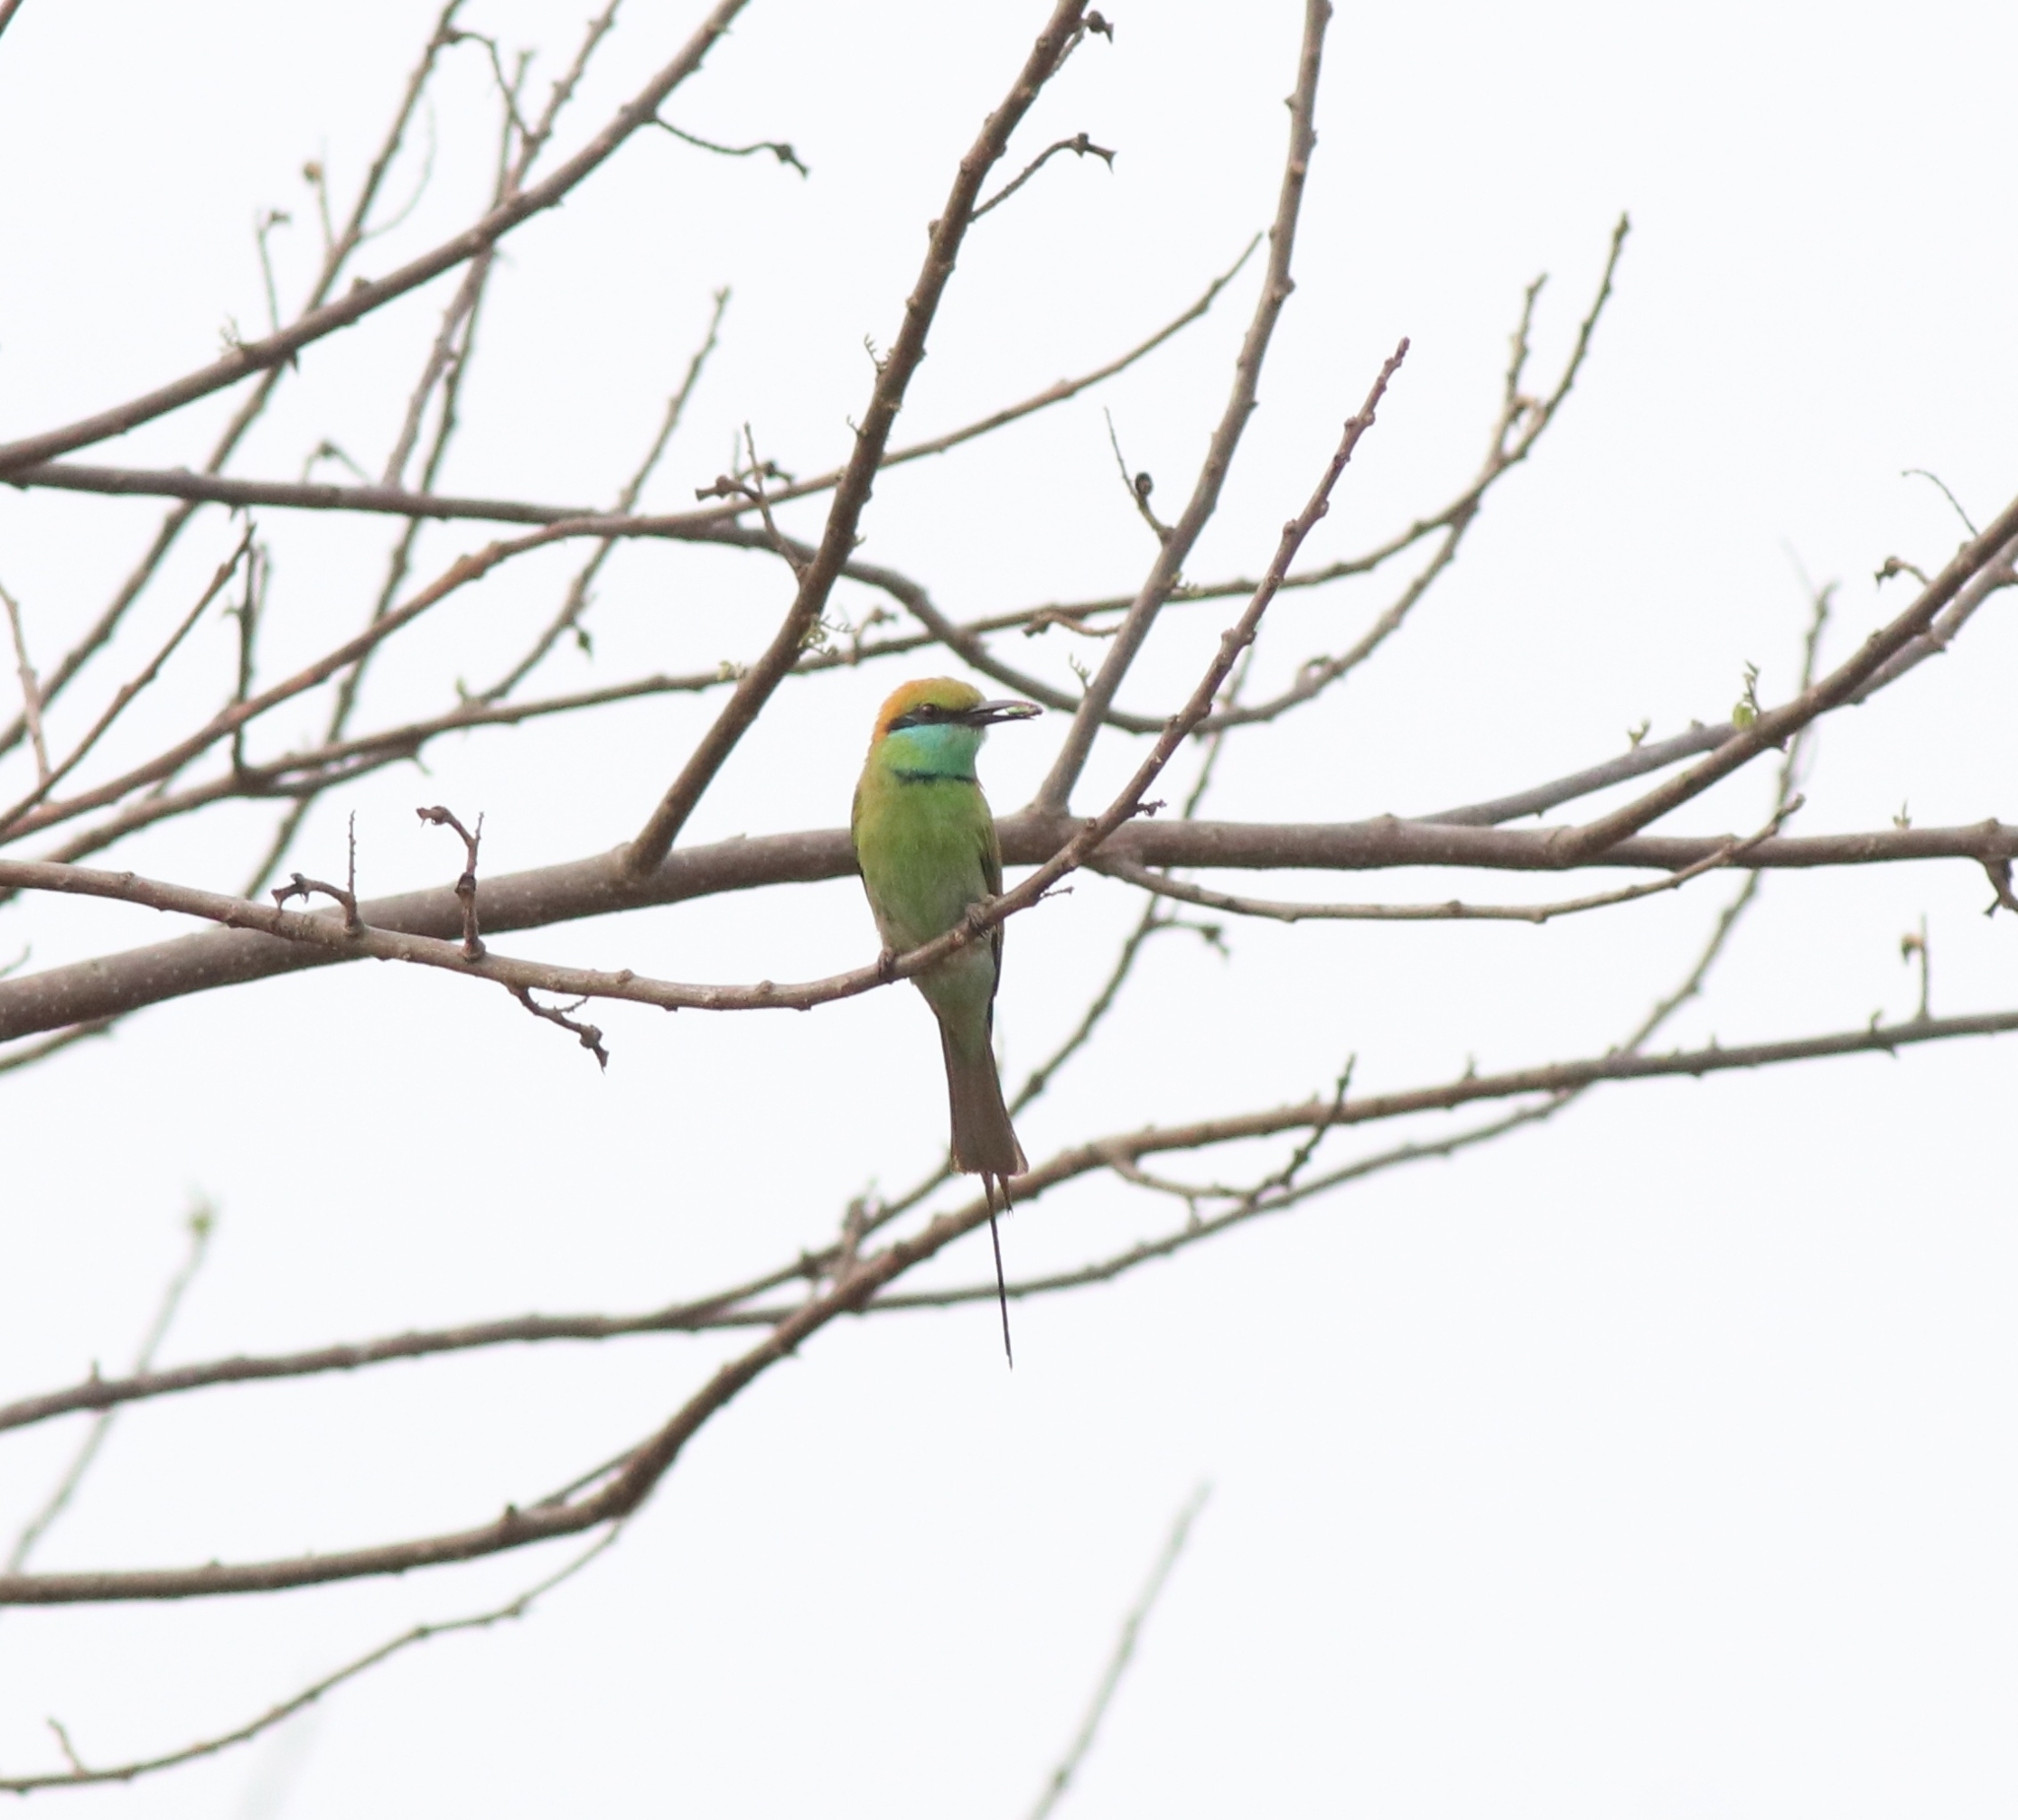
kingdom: Animalia
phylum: Chordata
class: Aves
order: Coraciiformes
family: Meropidae
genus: Merops
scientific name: Merops orientalis
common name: Green bee-eater
